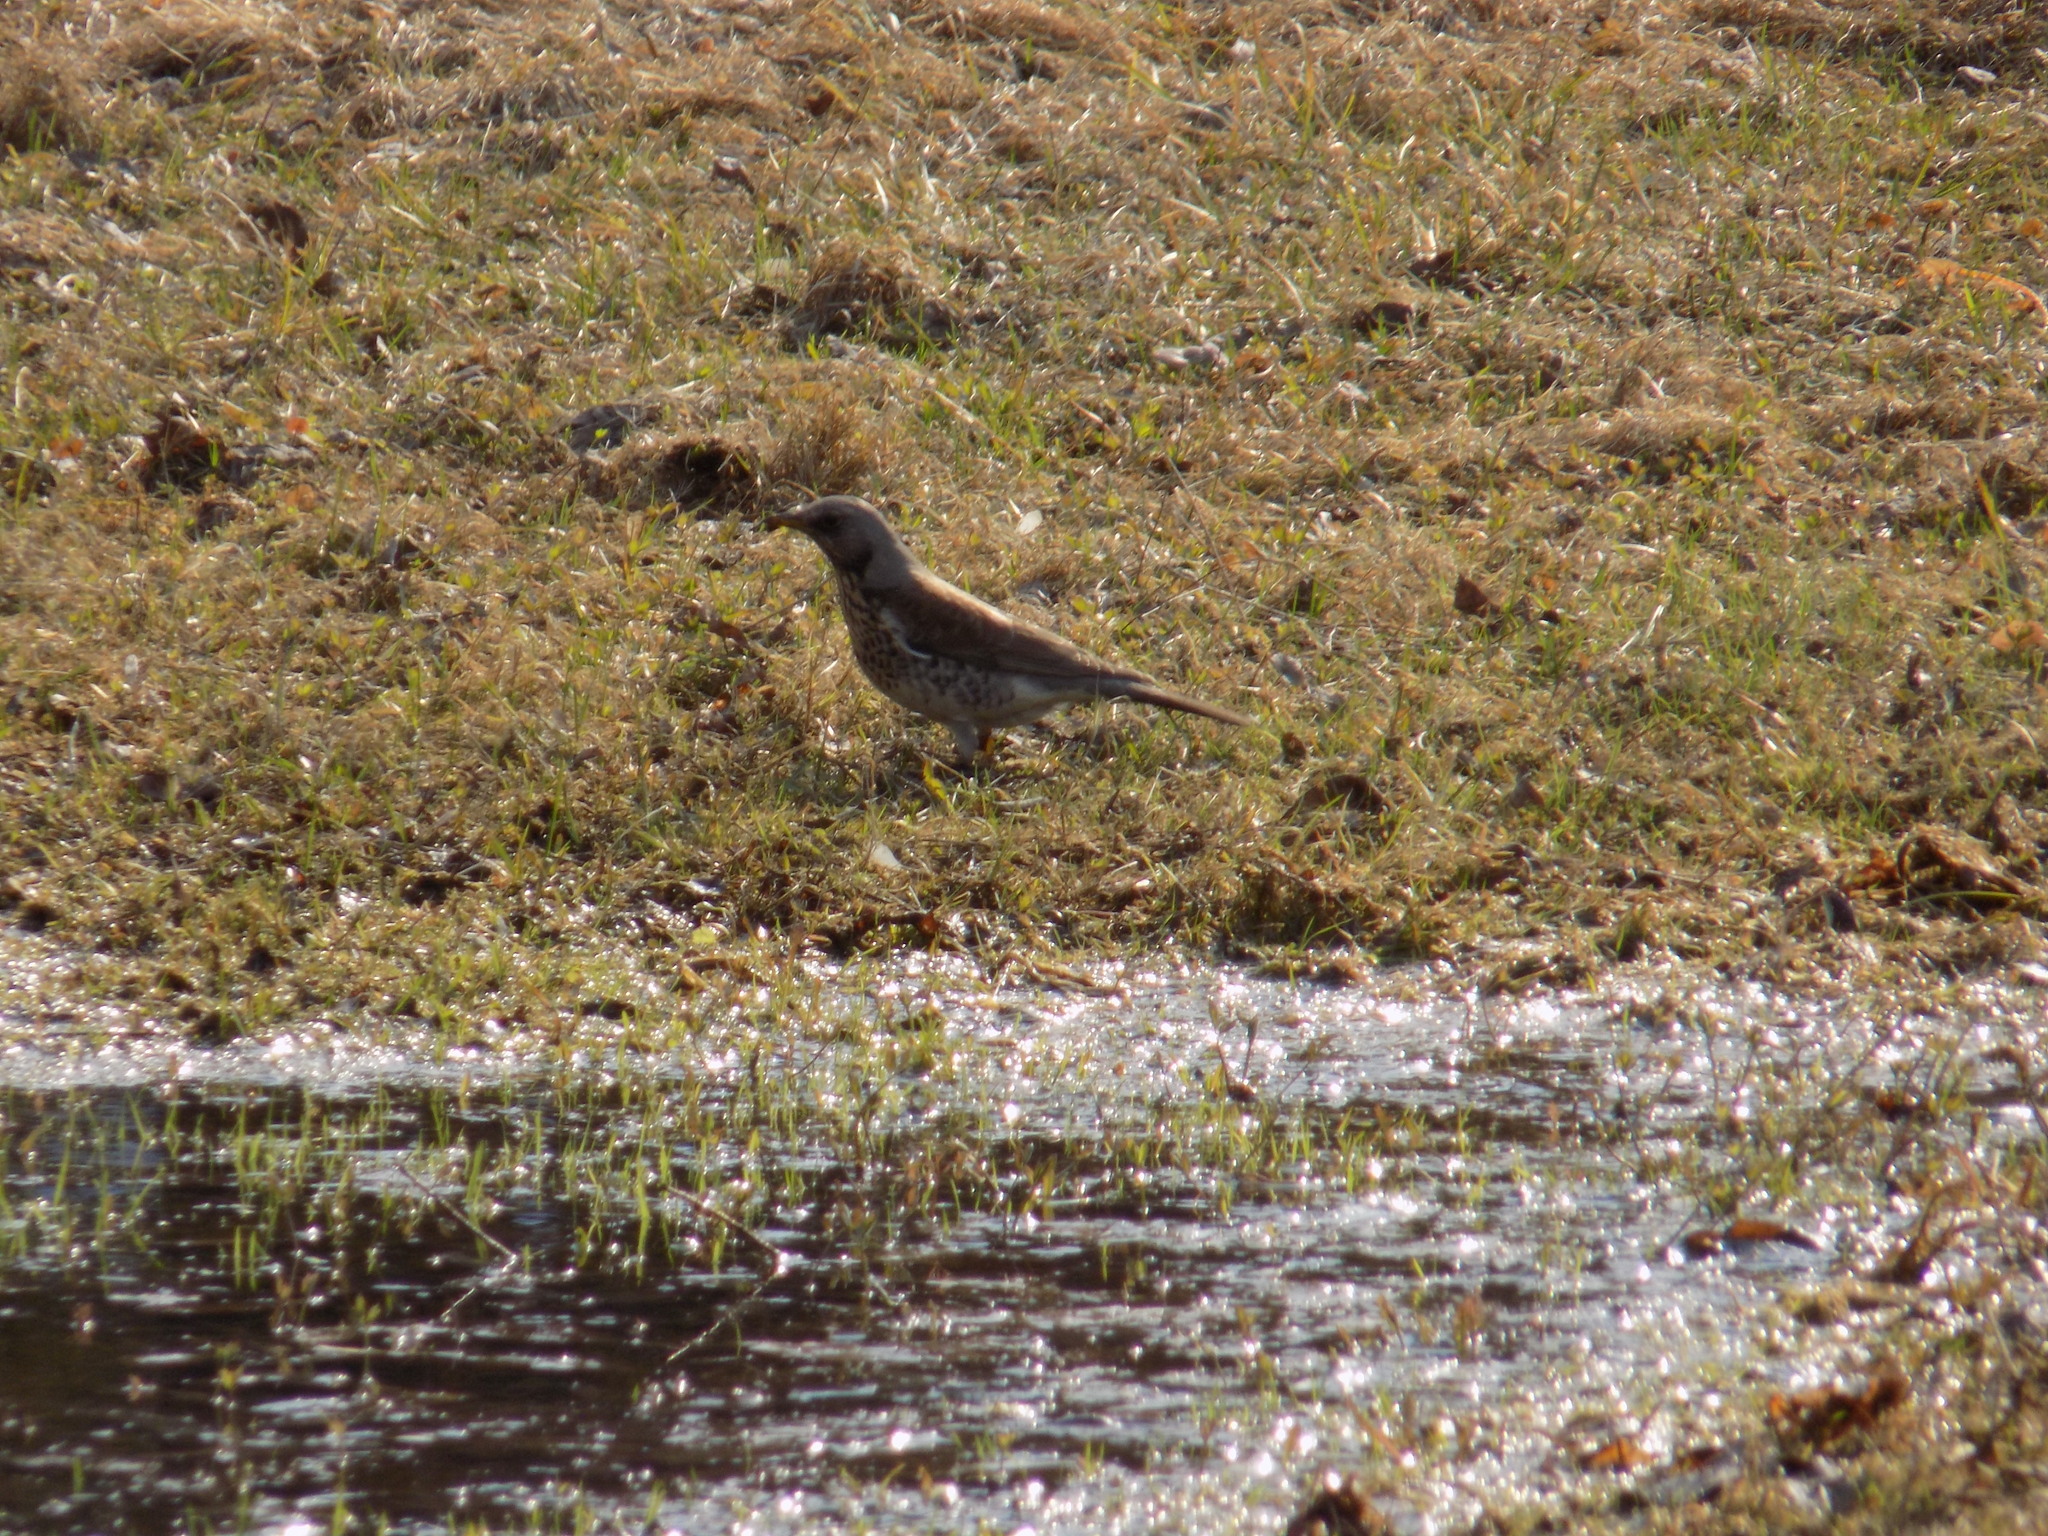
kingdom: Animalia
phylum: Chordata
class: Aves
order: Passeriformes
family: Turdidae
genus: Turdus
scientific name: Turdus pilaris
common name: Fieldfare
